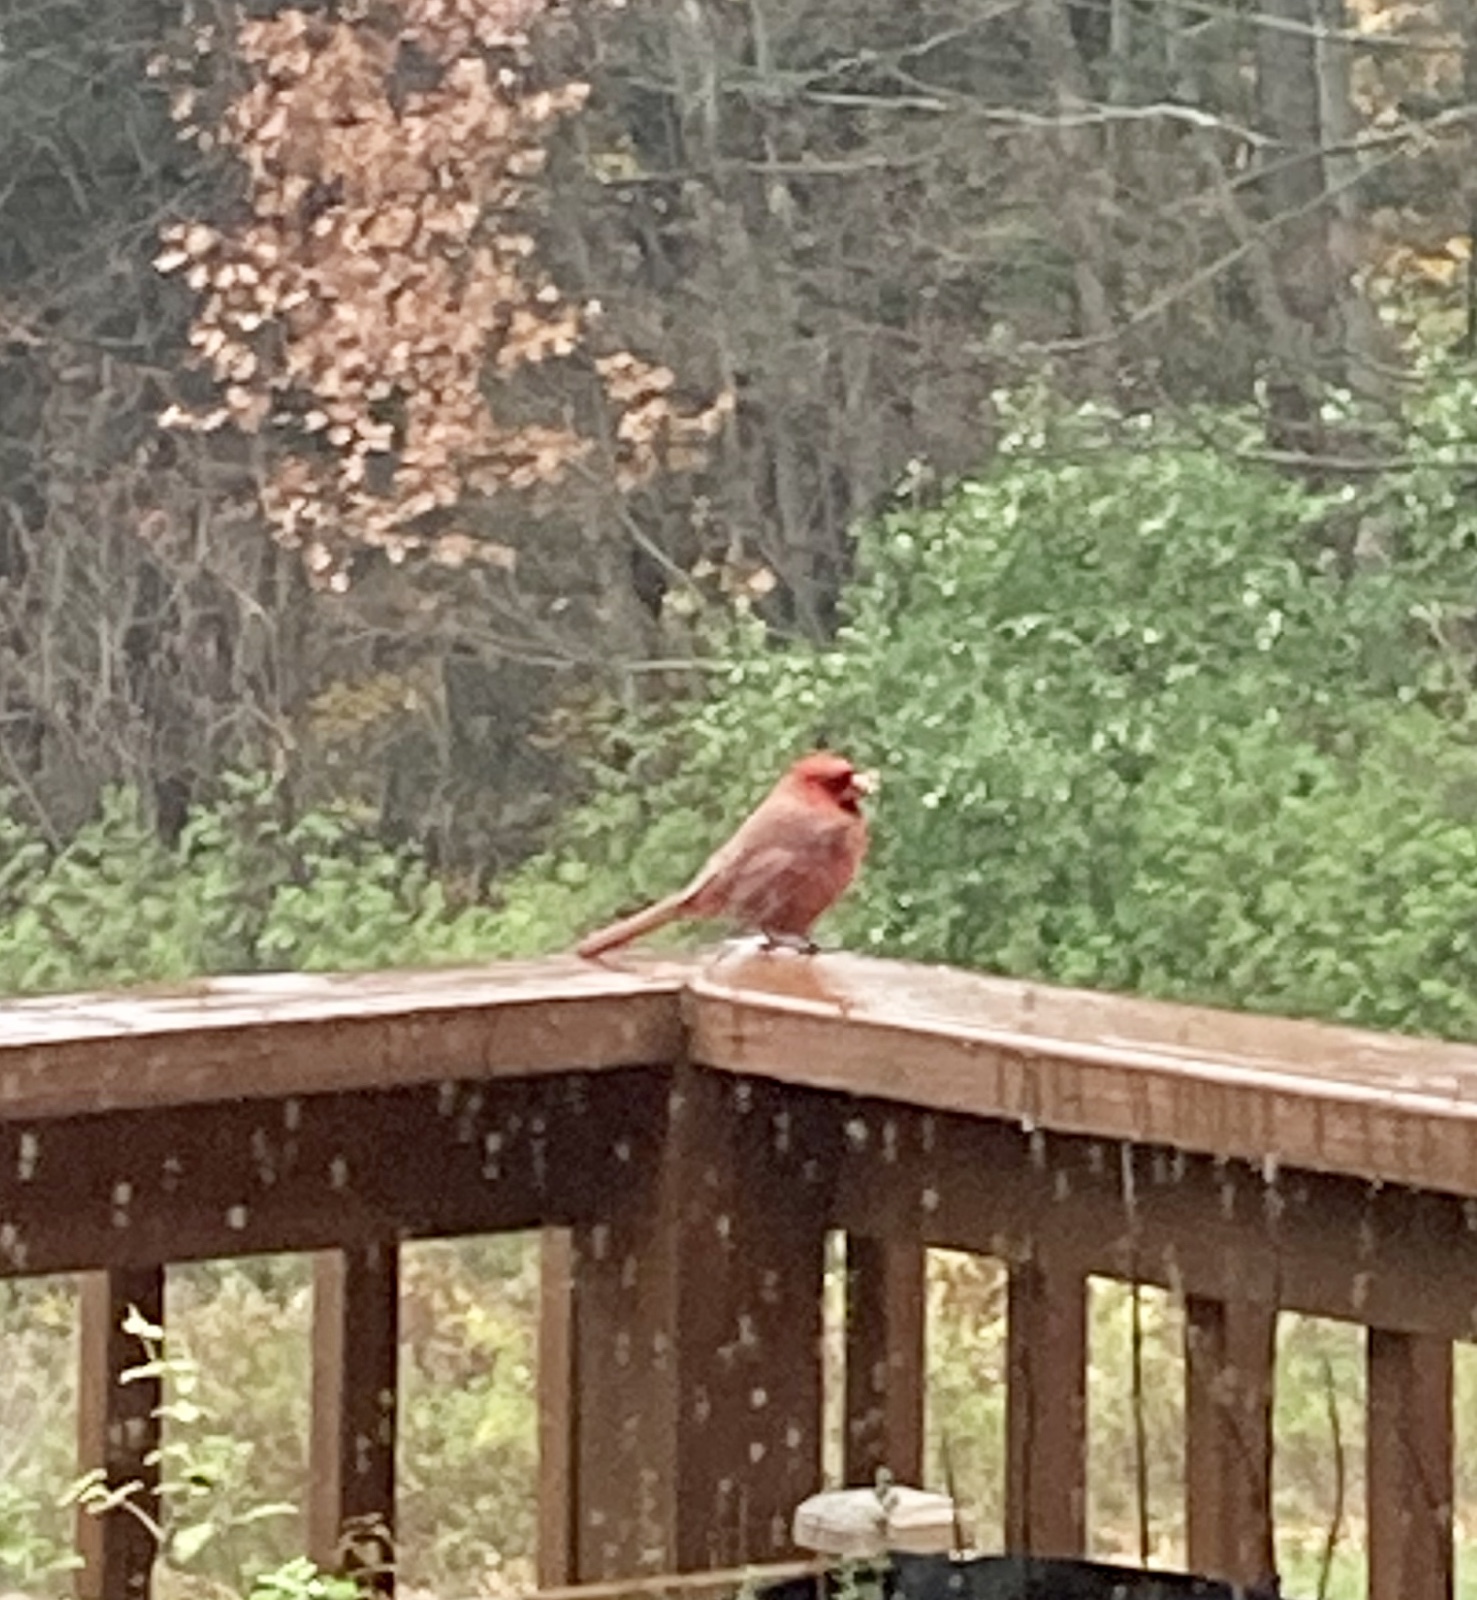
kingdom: Animalia
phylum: Chordata
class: Aves
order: Passeriformes
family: Cardinalidae
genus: Cardinalis
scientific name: Cardinalis cardinalis
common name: Northern cardinal
